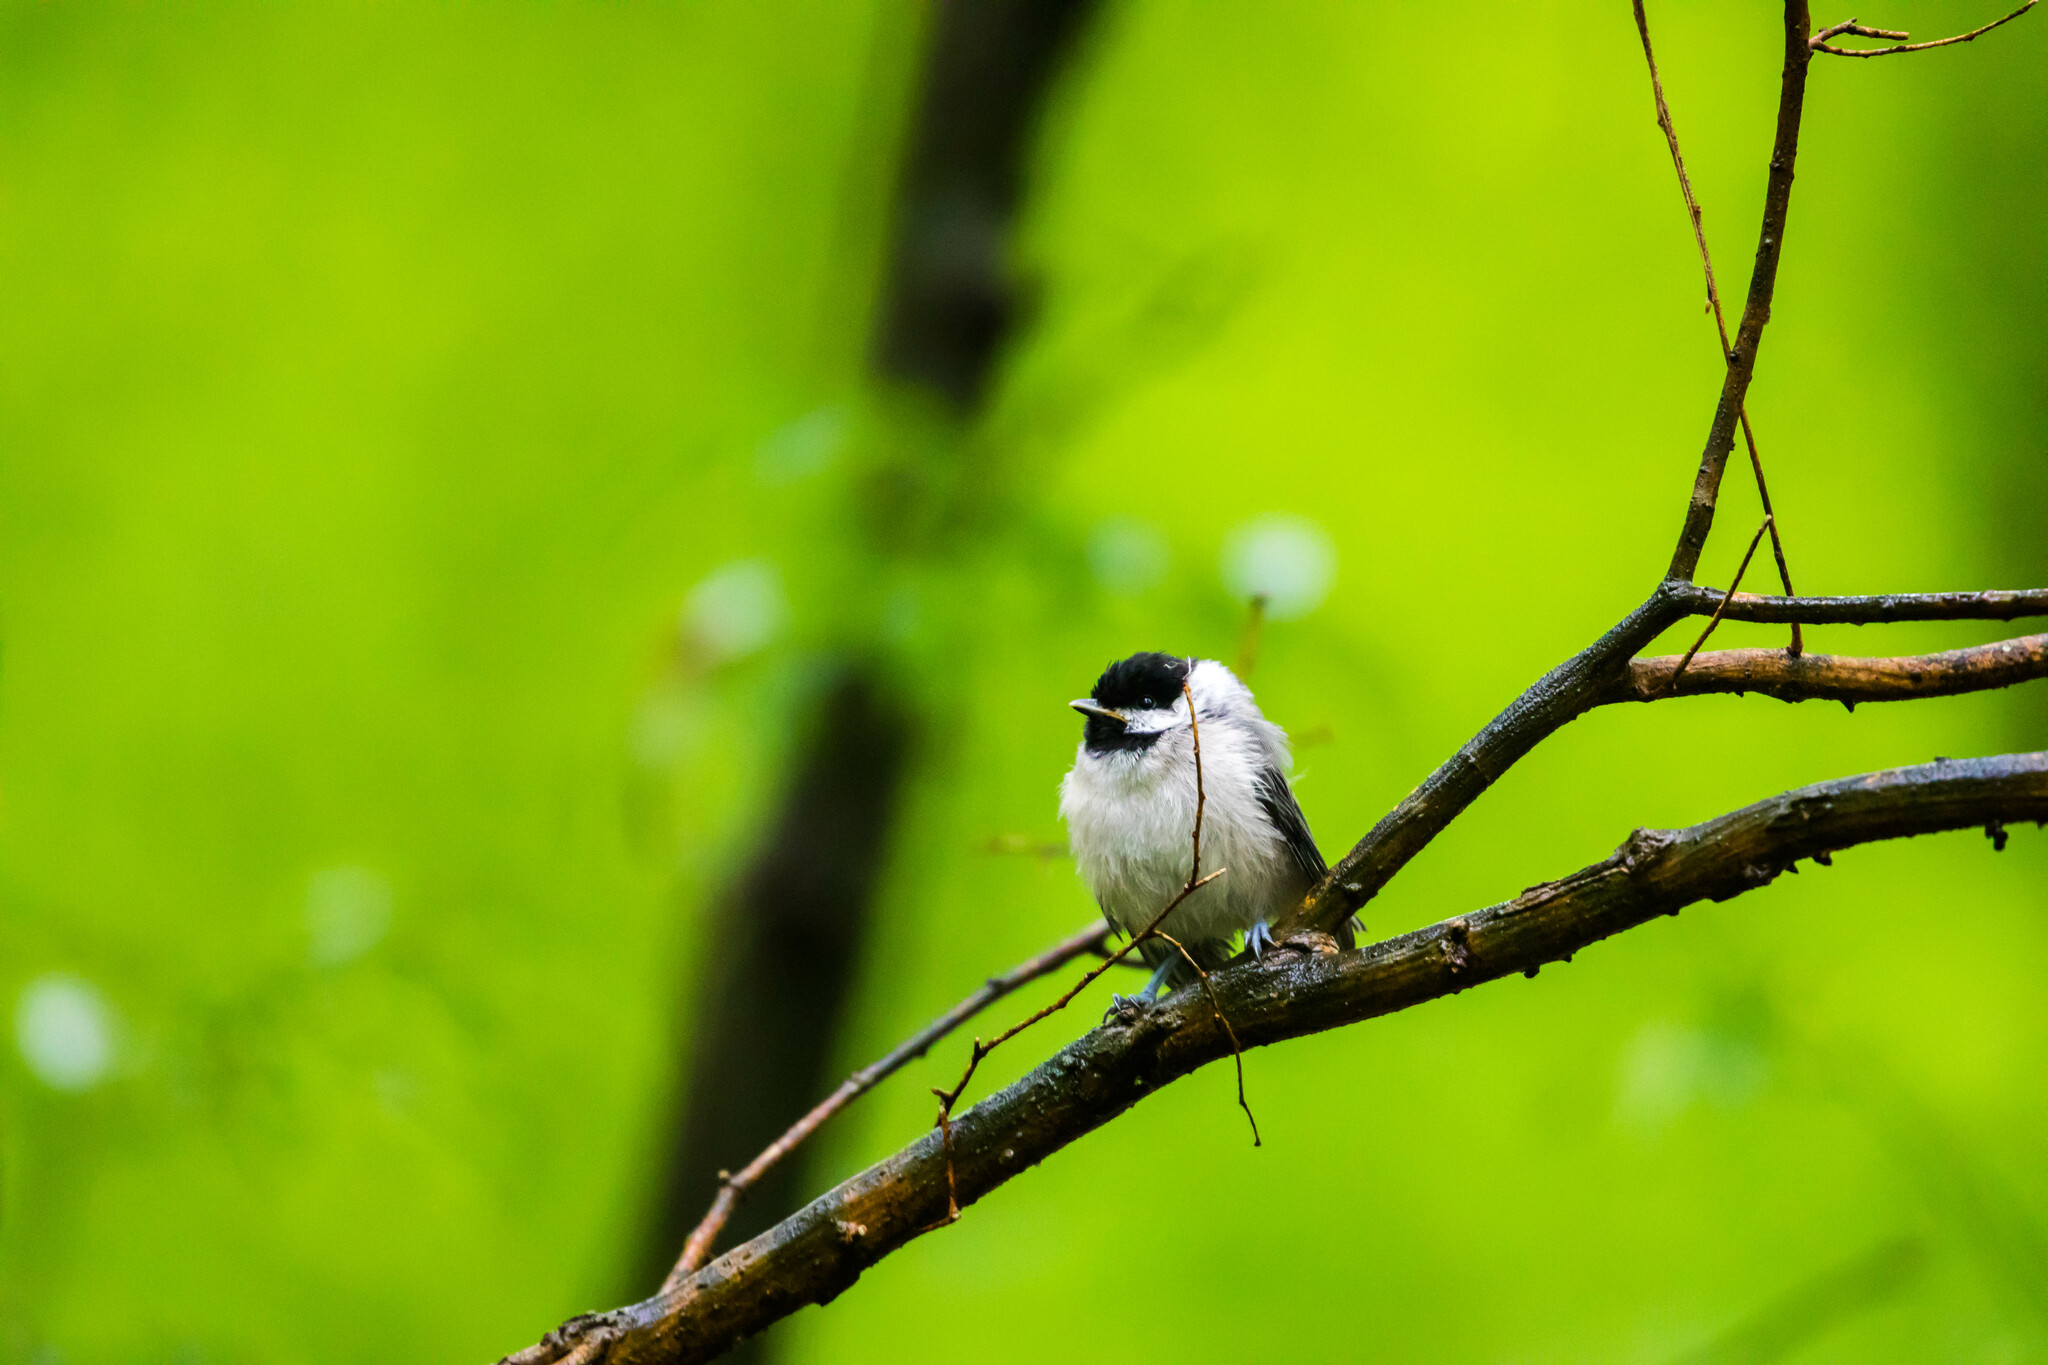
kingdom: Animalia
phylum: Chordata
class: Aves
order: Passeriformes
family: Paridae
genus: Poecile
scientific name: Poecile carolinensis
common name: Carolina chickadee
